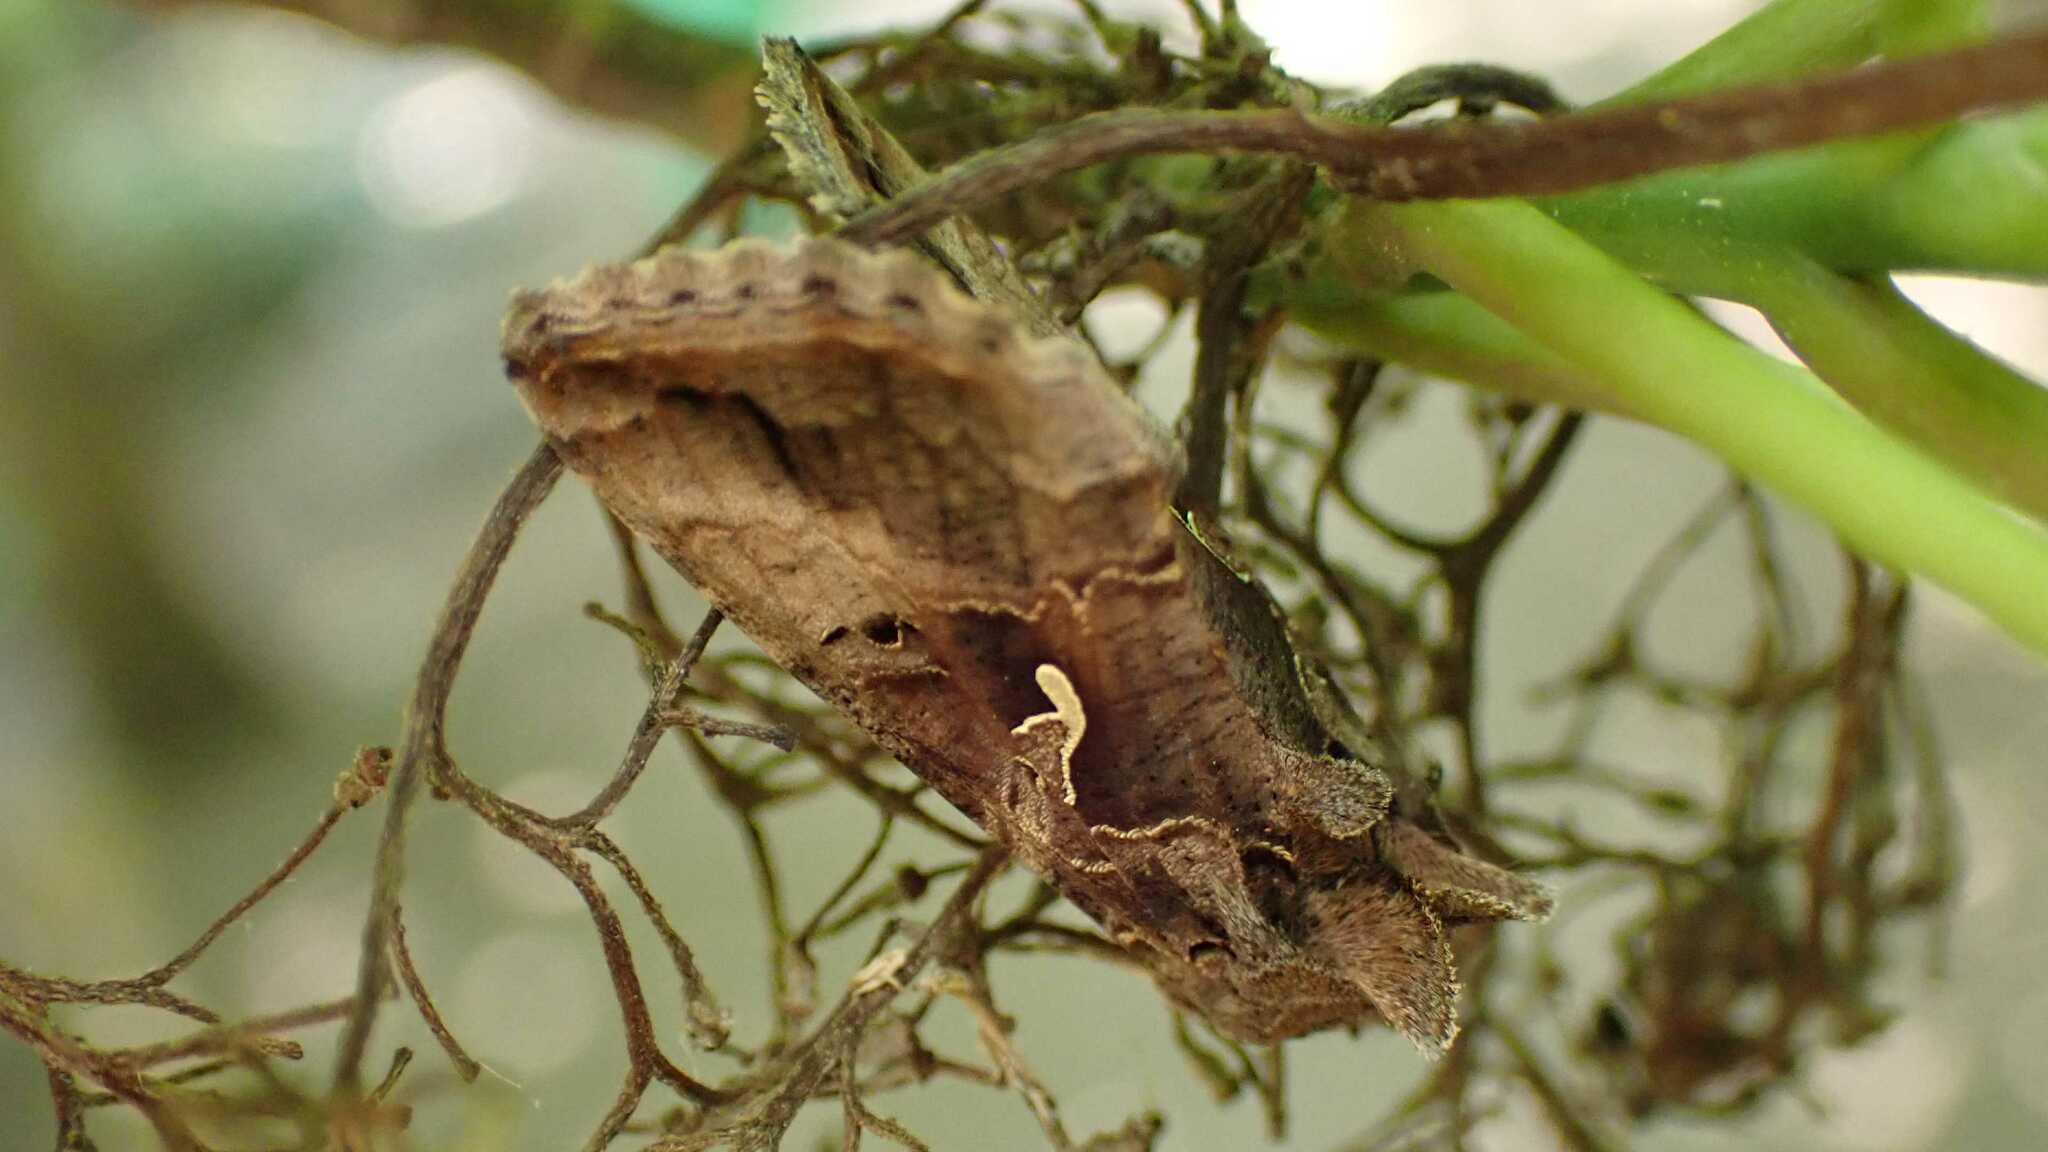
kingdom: Animalia
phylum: Arthropoda
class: Insecta
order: Lepidoptera
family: Noctuidae
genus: Autographa
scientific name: Autographa gamma
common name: Silver y
